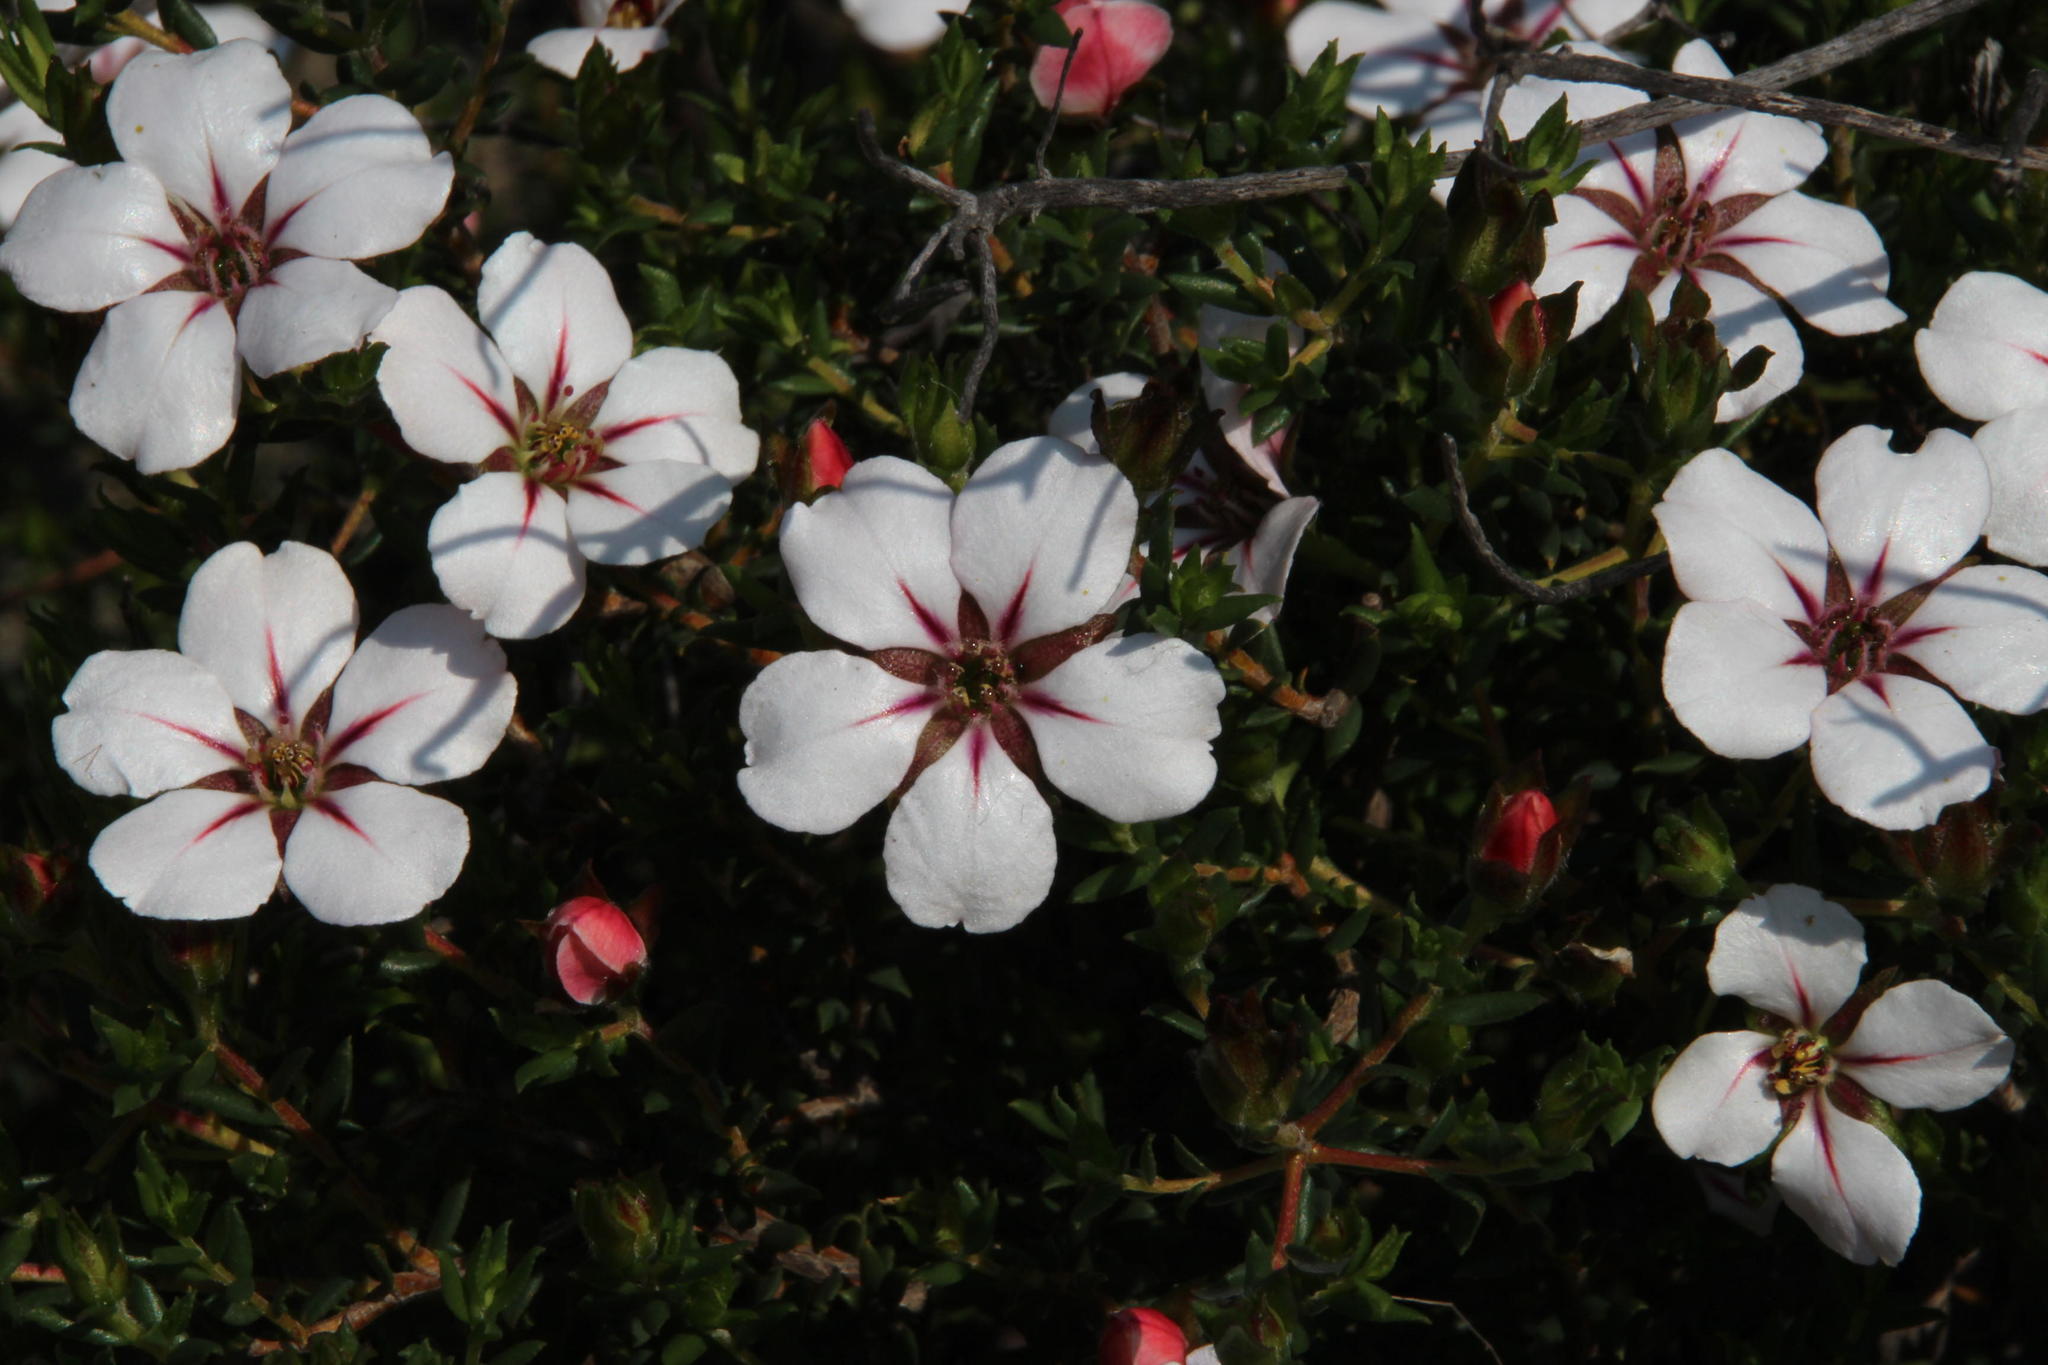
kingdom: Plantae
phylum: Tracheophyta
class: Magnoliopsida
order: Sapindales
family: Rutaceae
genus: Adenandra
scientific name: Adenandra uniflora
